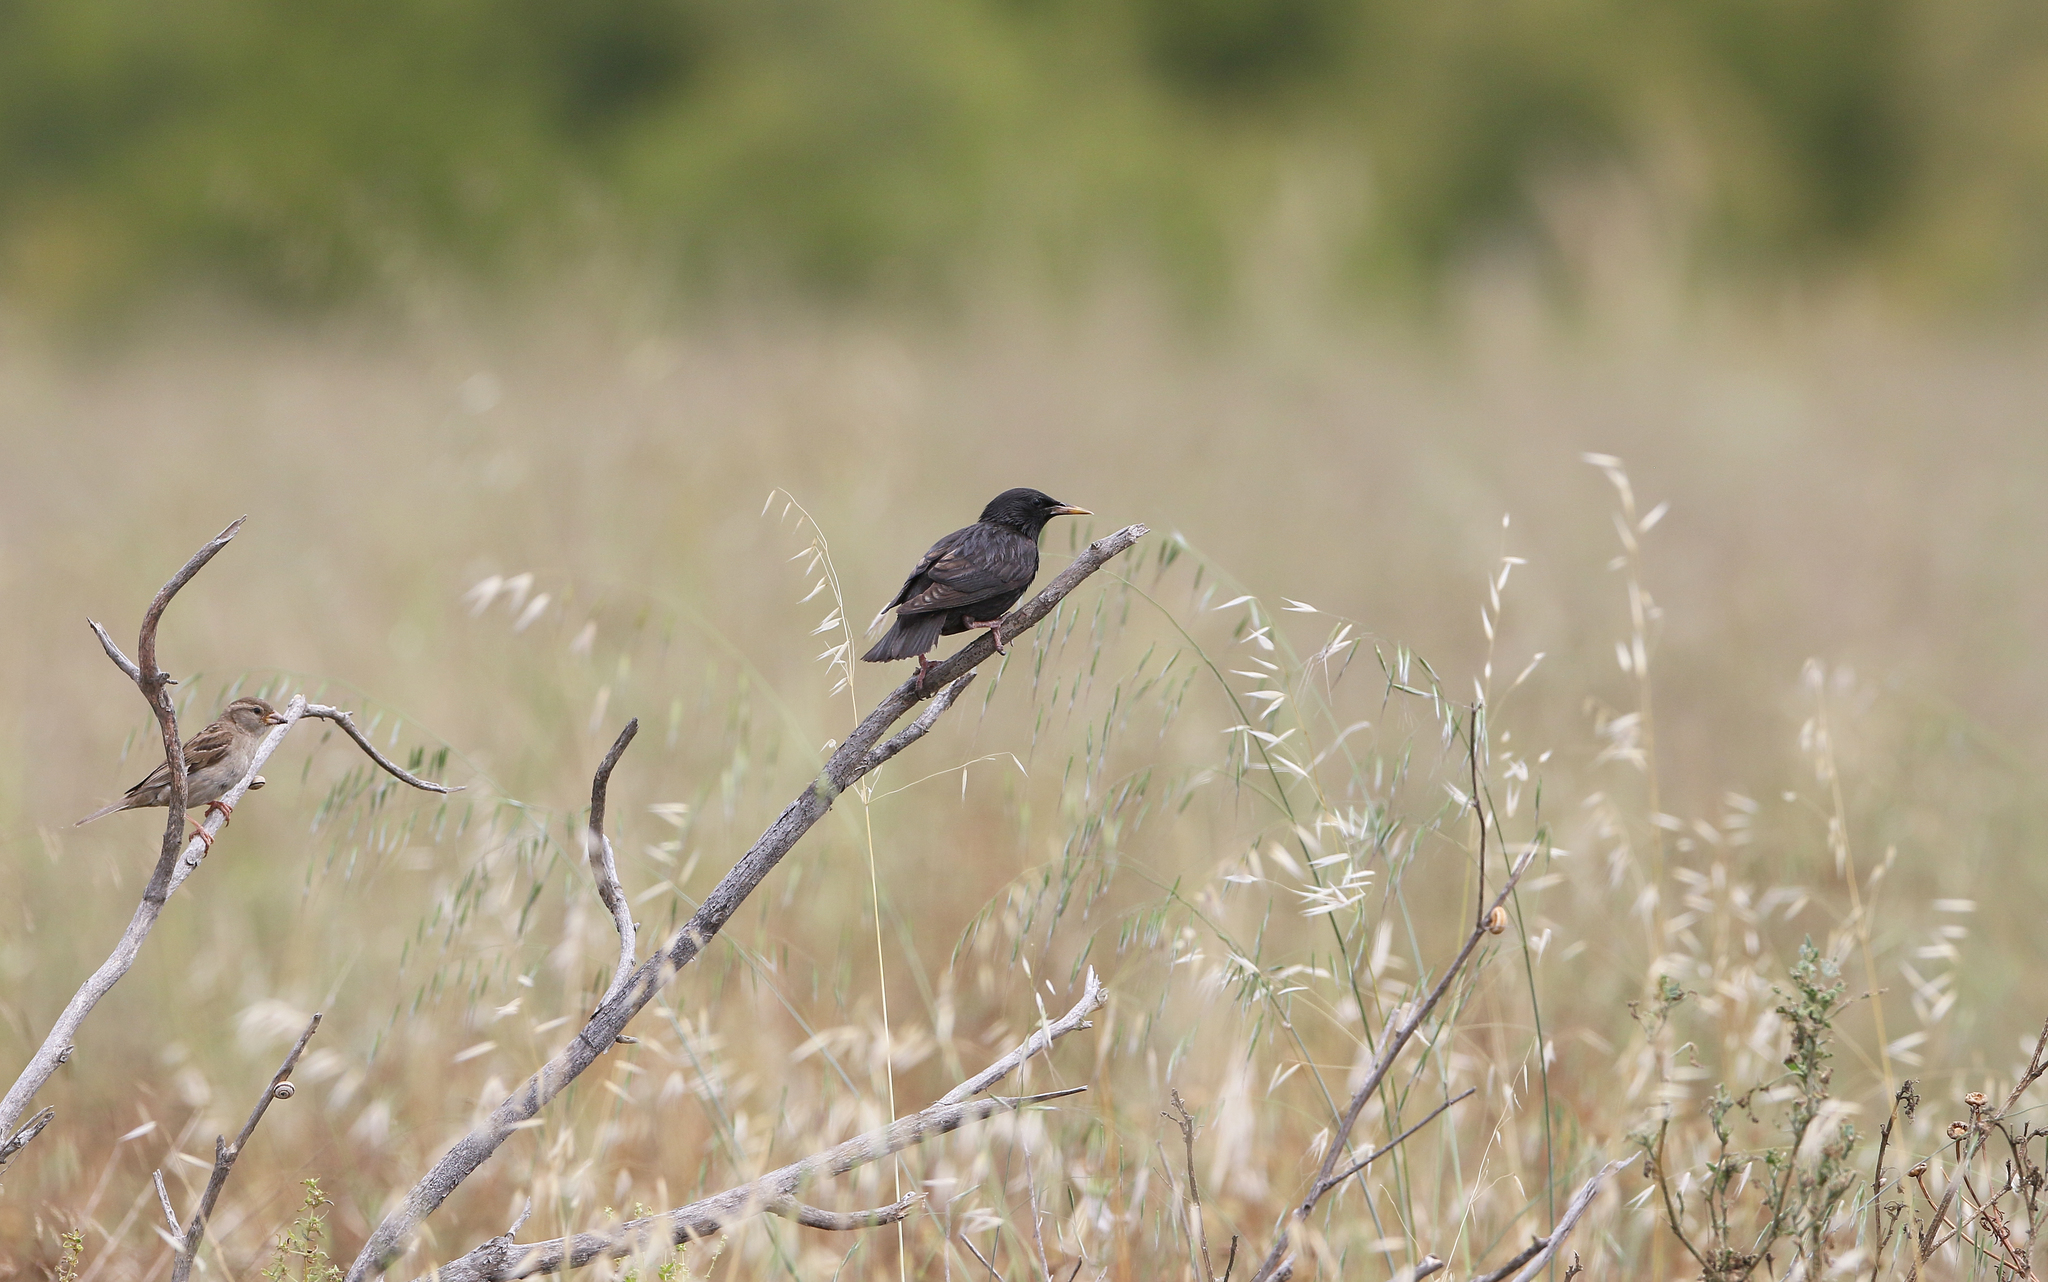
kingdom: Animalia
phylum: Chordata
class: Aves
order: Passeriformes
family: Sturnidae
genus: Sturnus
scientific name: Sturnus unicolor
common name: Spotless starling
